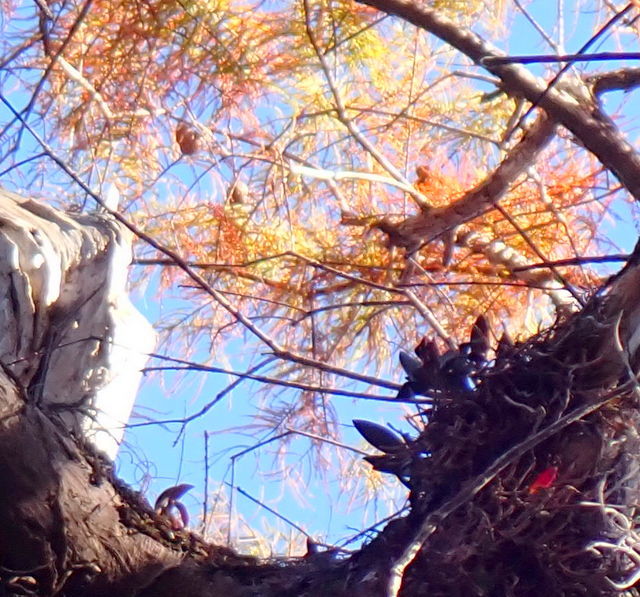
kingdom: Plantae
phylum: Tracheophyta
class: Liliopsida
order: Asparagales
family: Orchidaceae
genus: Epidendrum
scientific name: Epidendrum conopseum
